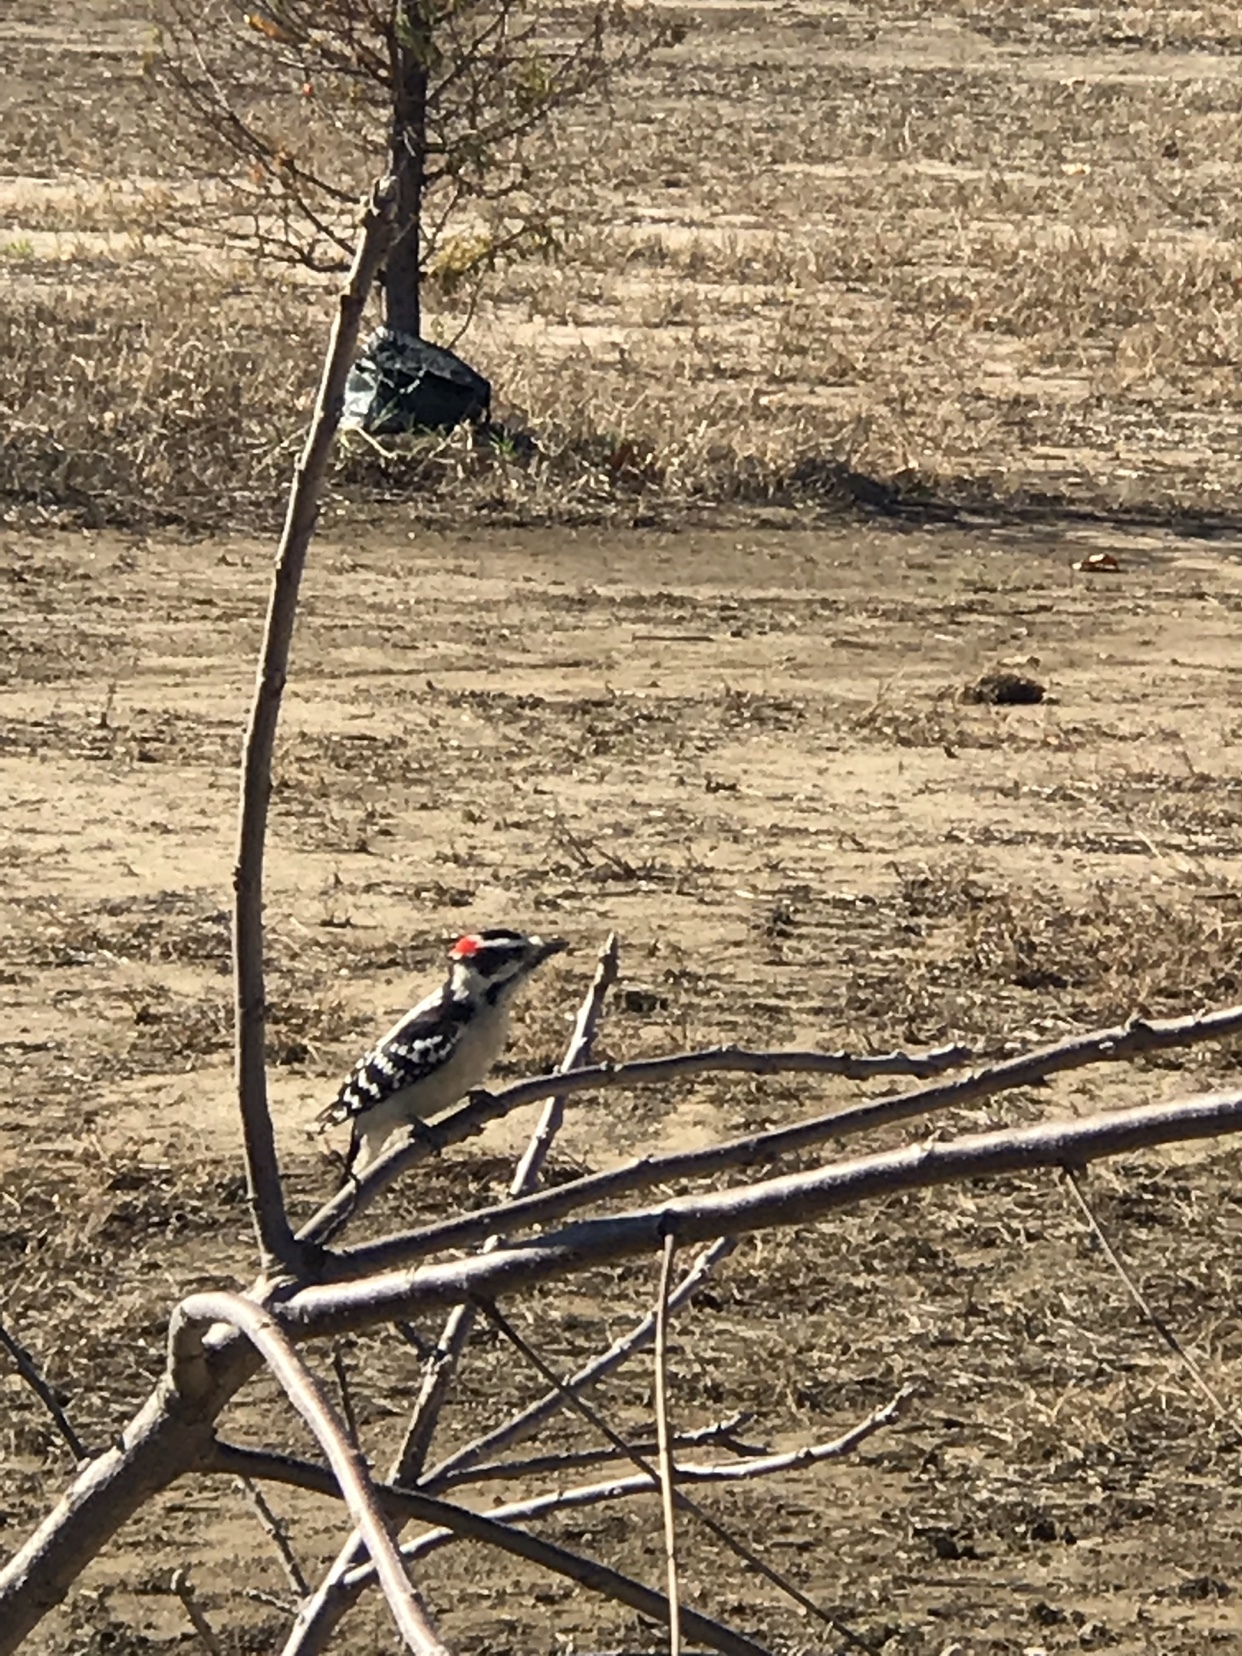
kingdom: Animalia
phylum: Chordata
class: Aves
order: Piciformes
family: Picidae
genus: Dryobates
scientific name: Dryobates pubescens
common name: Downy woodpecker
